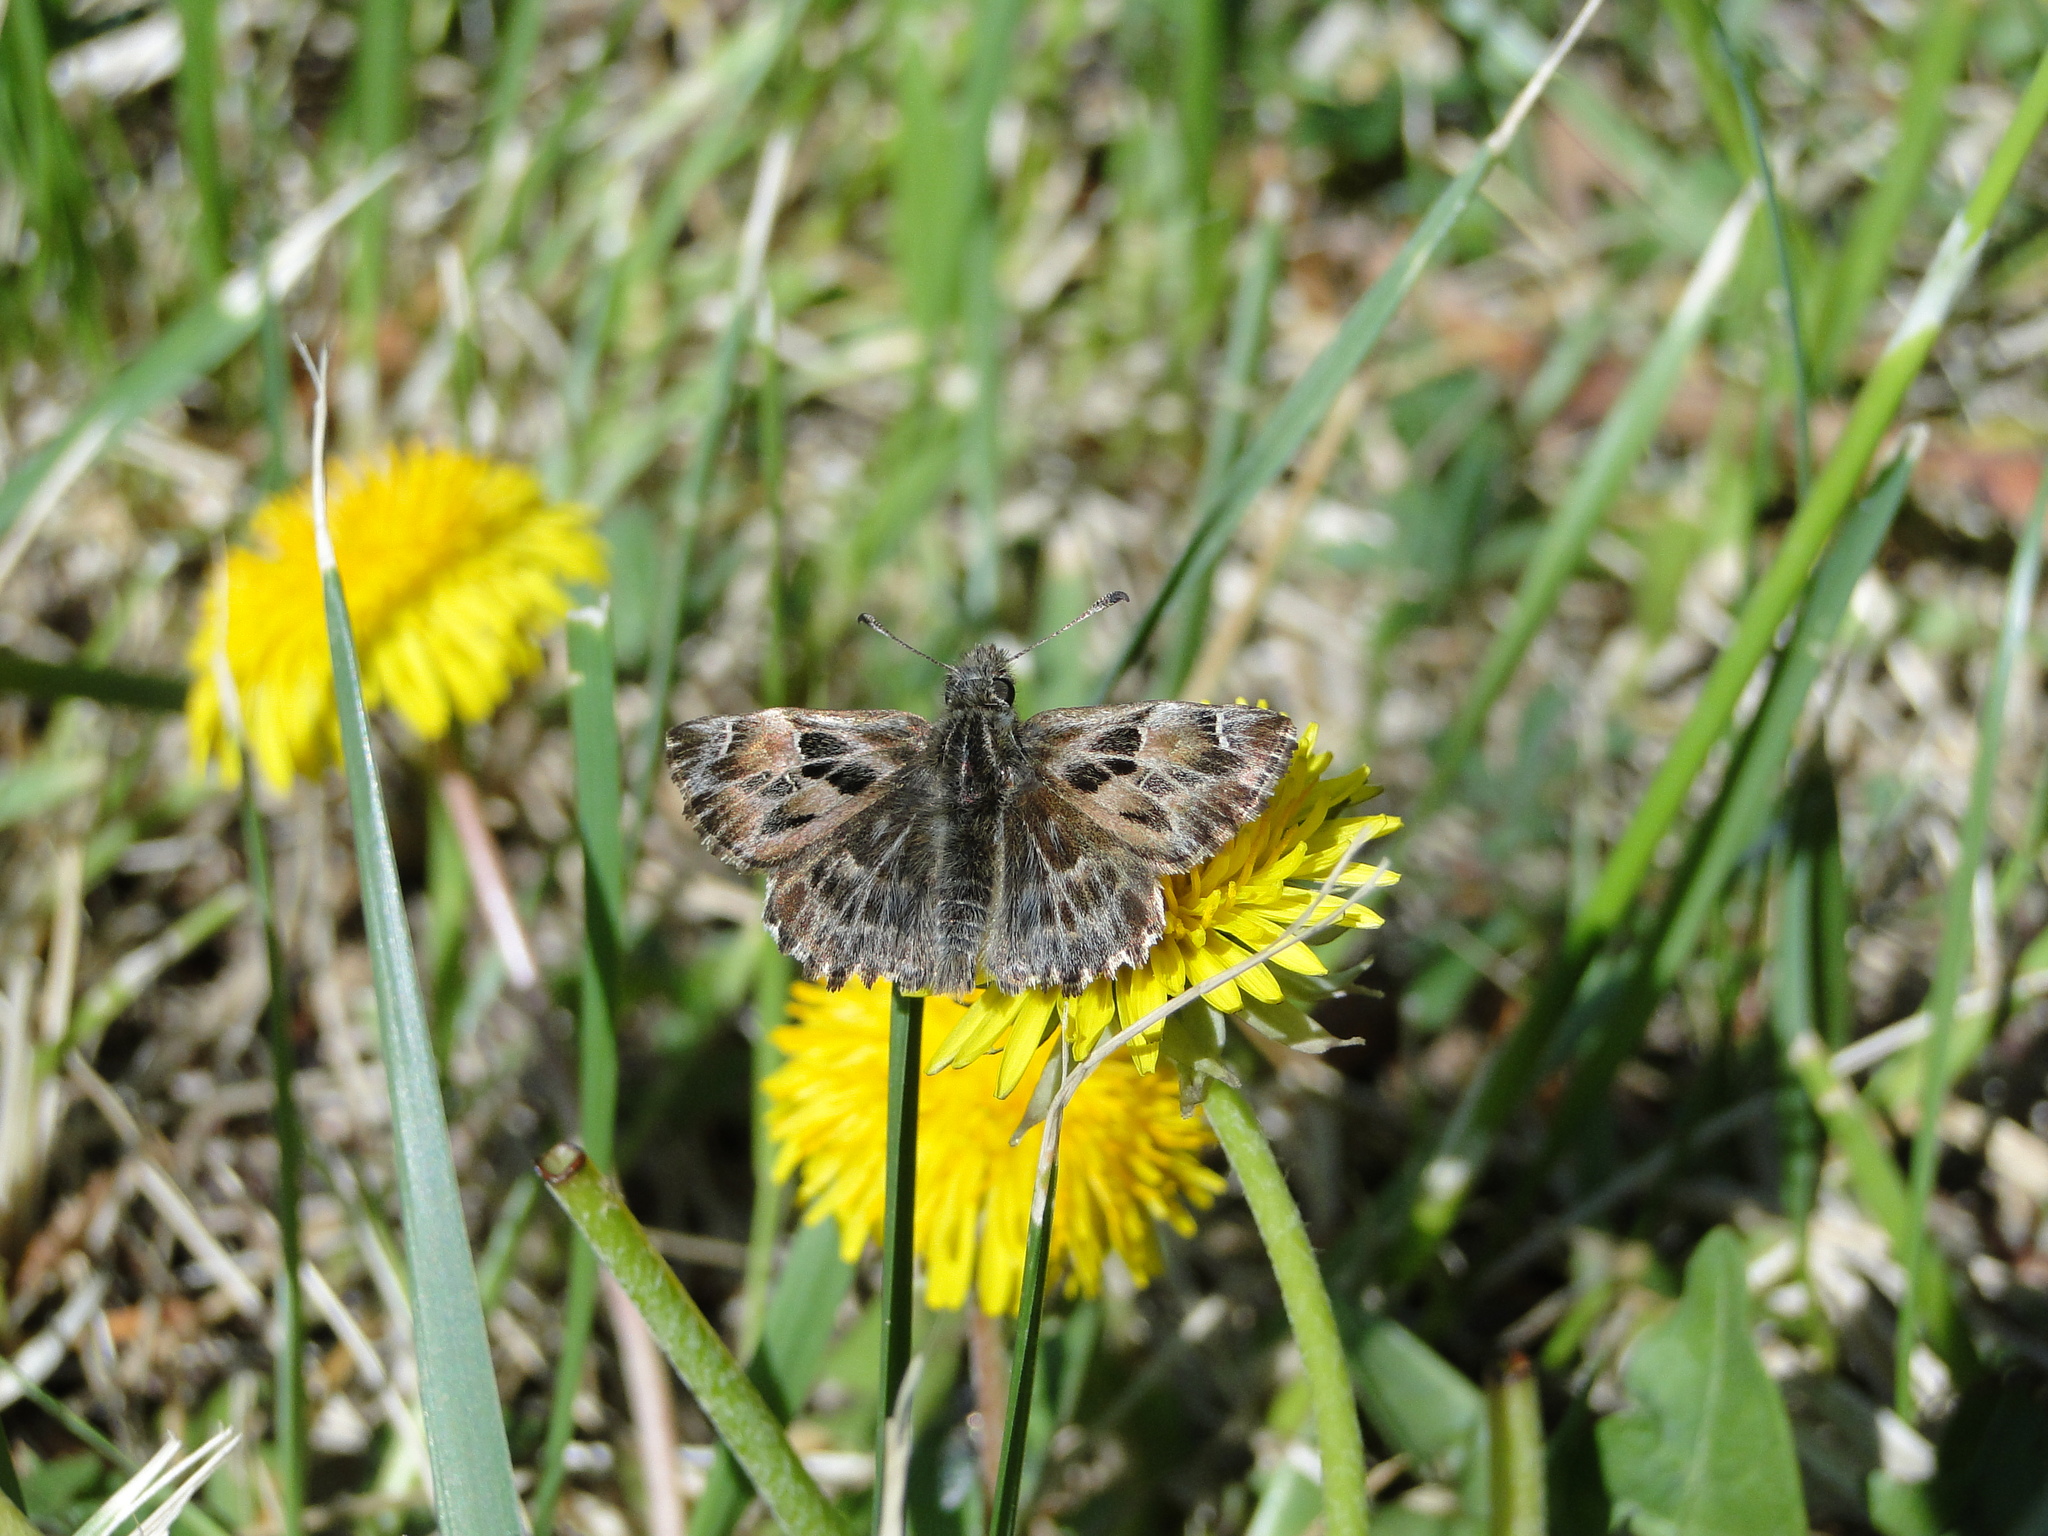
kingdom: Animalia
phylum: Arthropoda
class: Insecta
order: Lepidoptera
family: Hesperiidae
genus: Carcharodus
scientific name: Carcharodus alceae
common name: Mallow skipper
